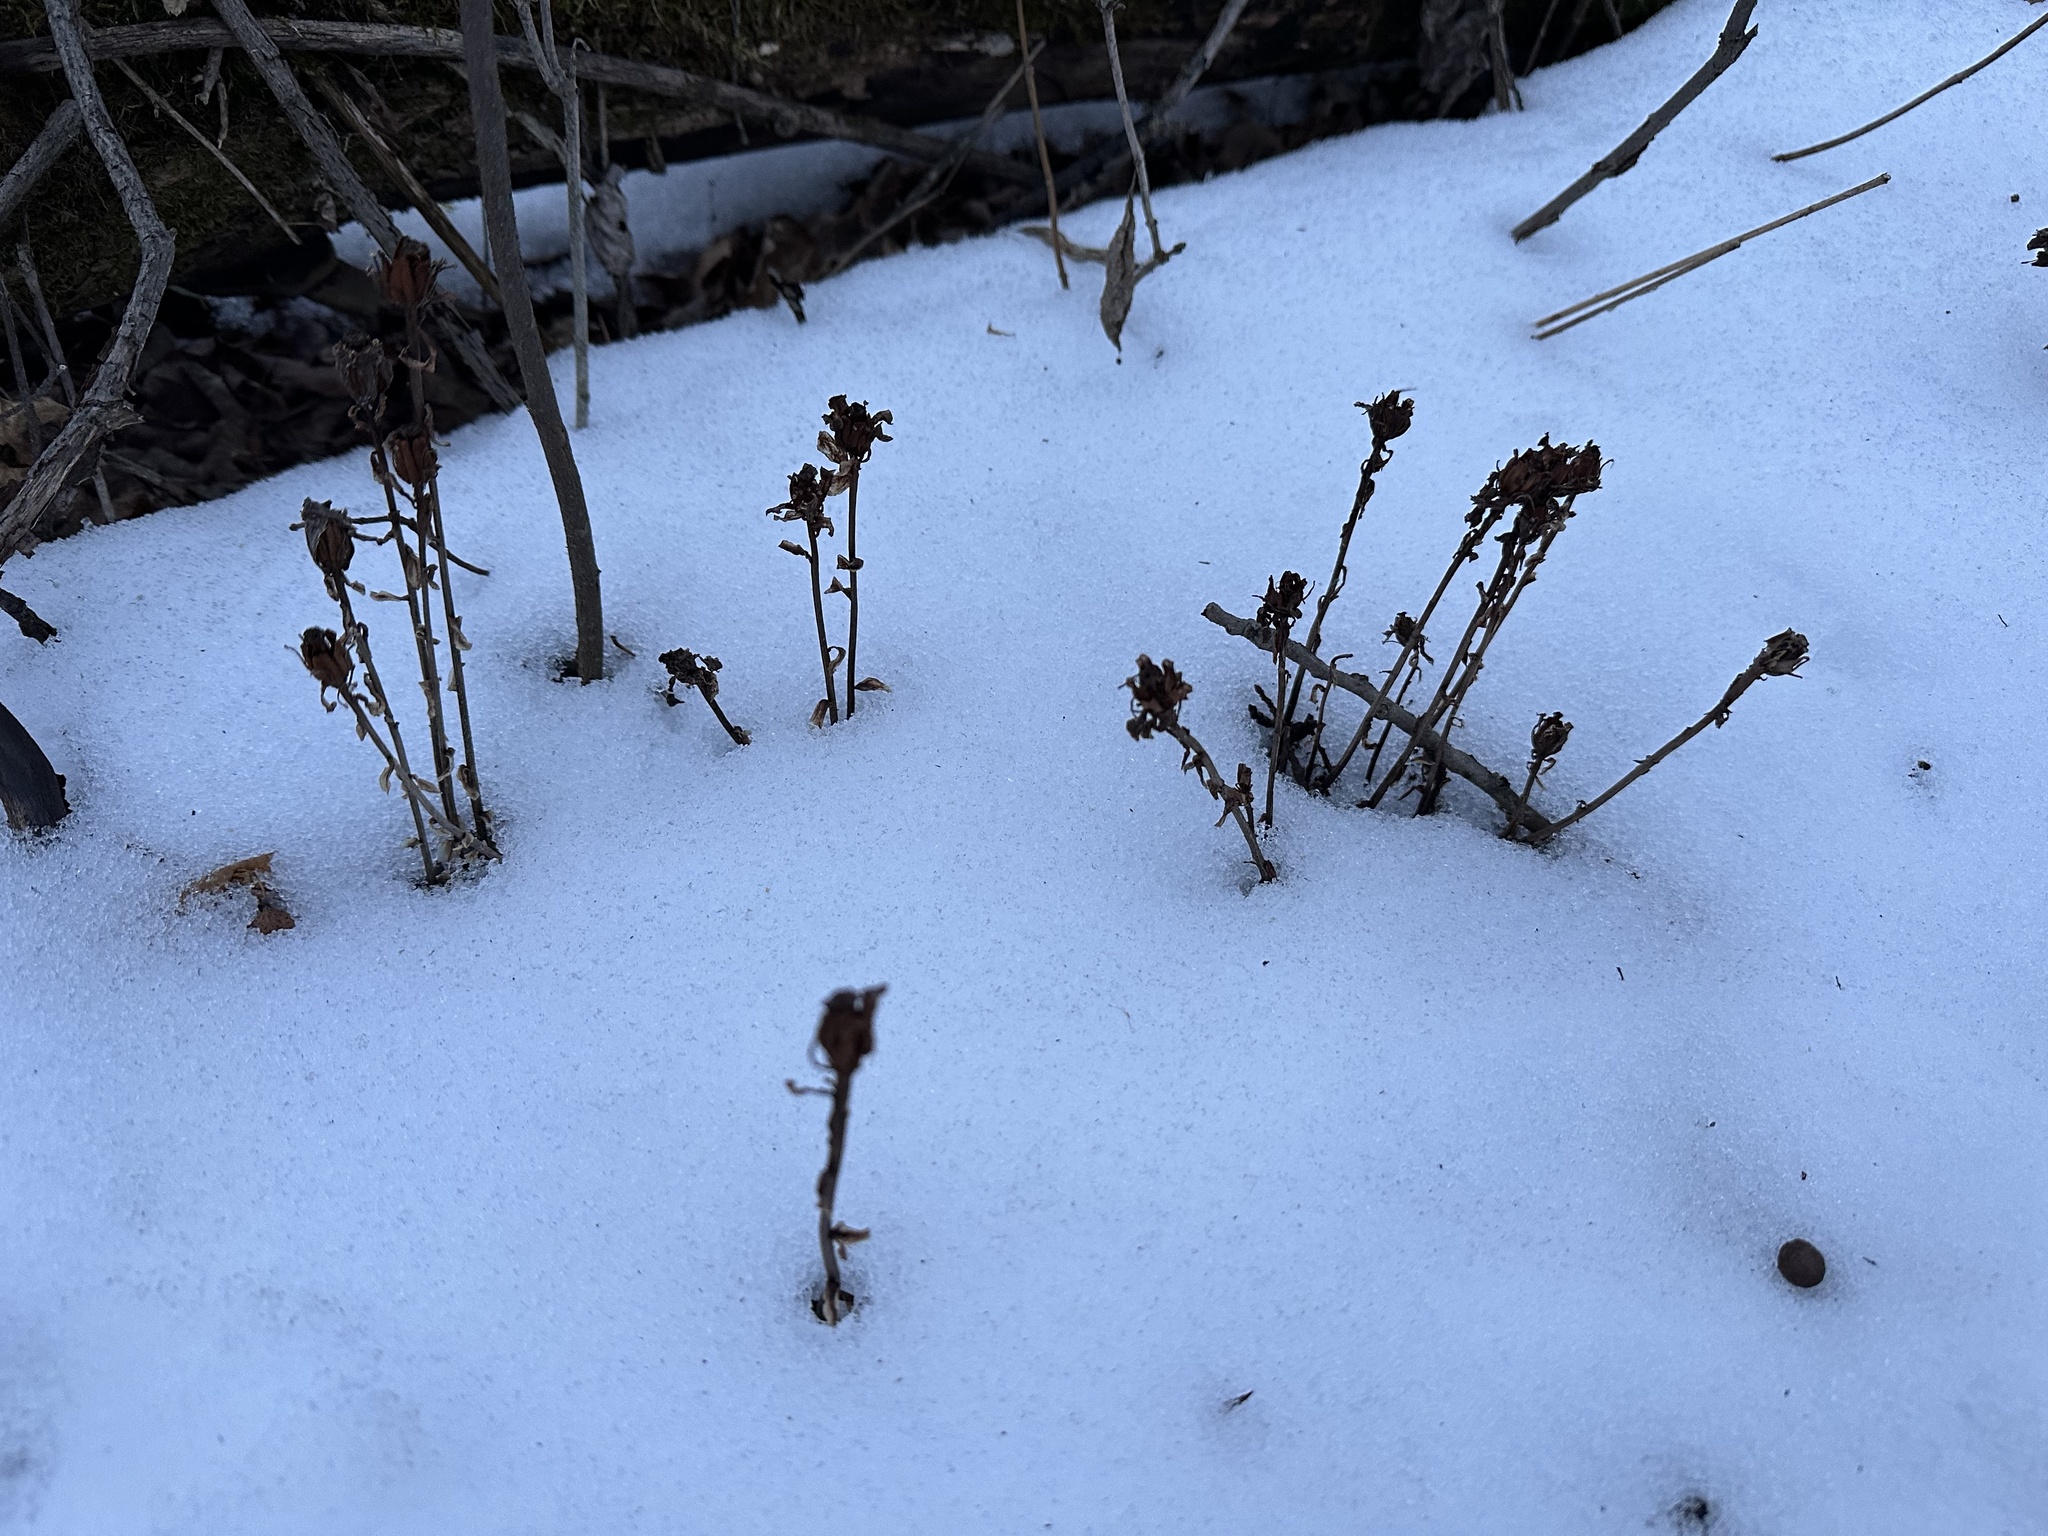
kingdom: Plantae
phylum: Tracheophyta
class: Magnoliopsida
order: Ericales
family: Ericaceae
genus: Monotropa
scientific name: Monotropa uniflora
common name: Convulsion root
